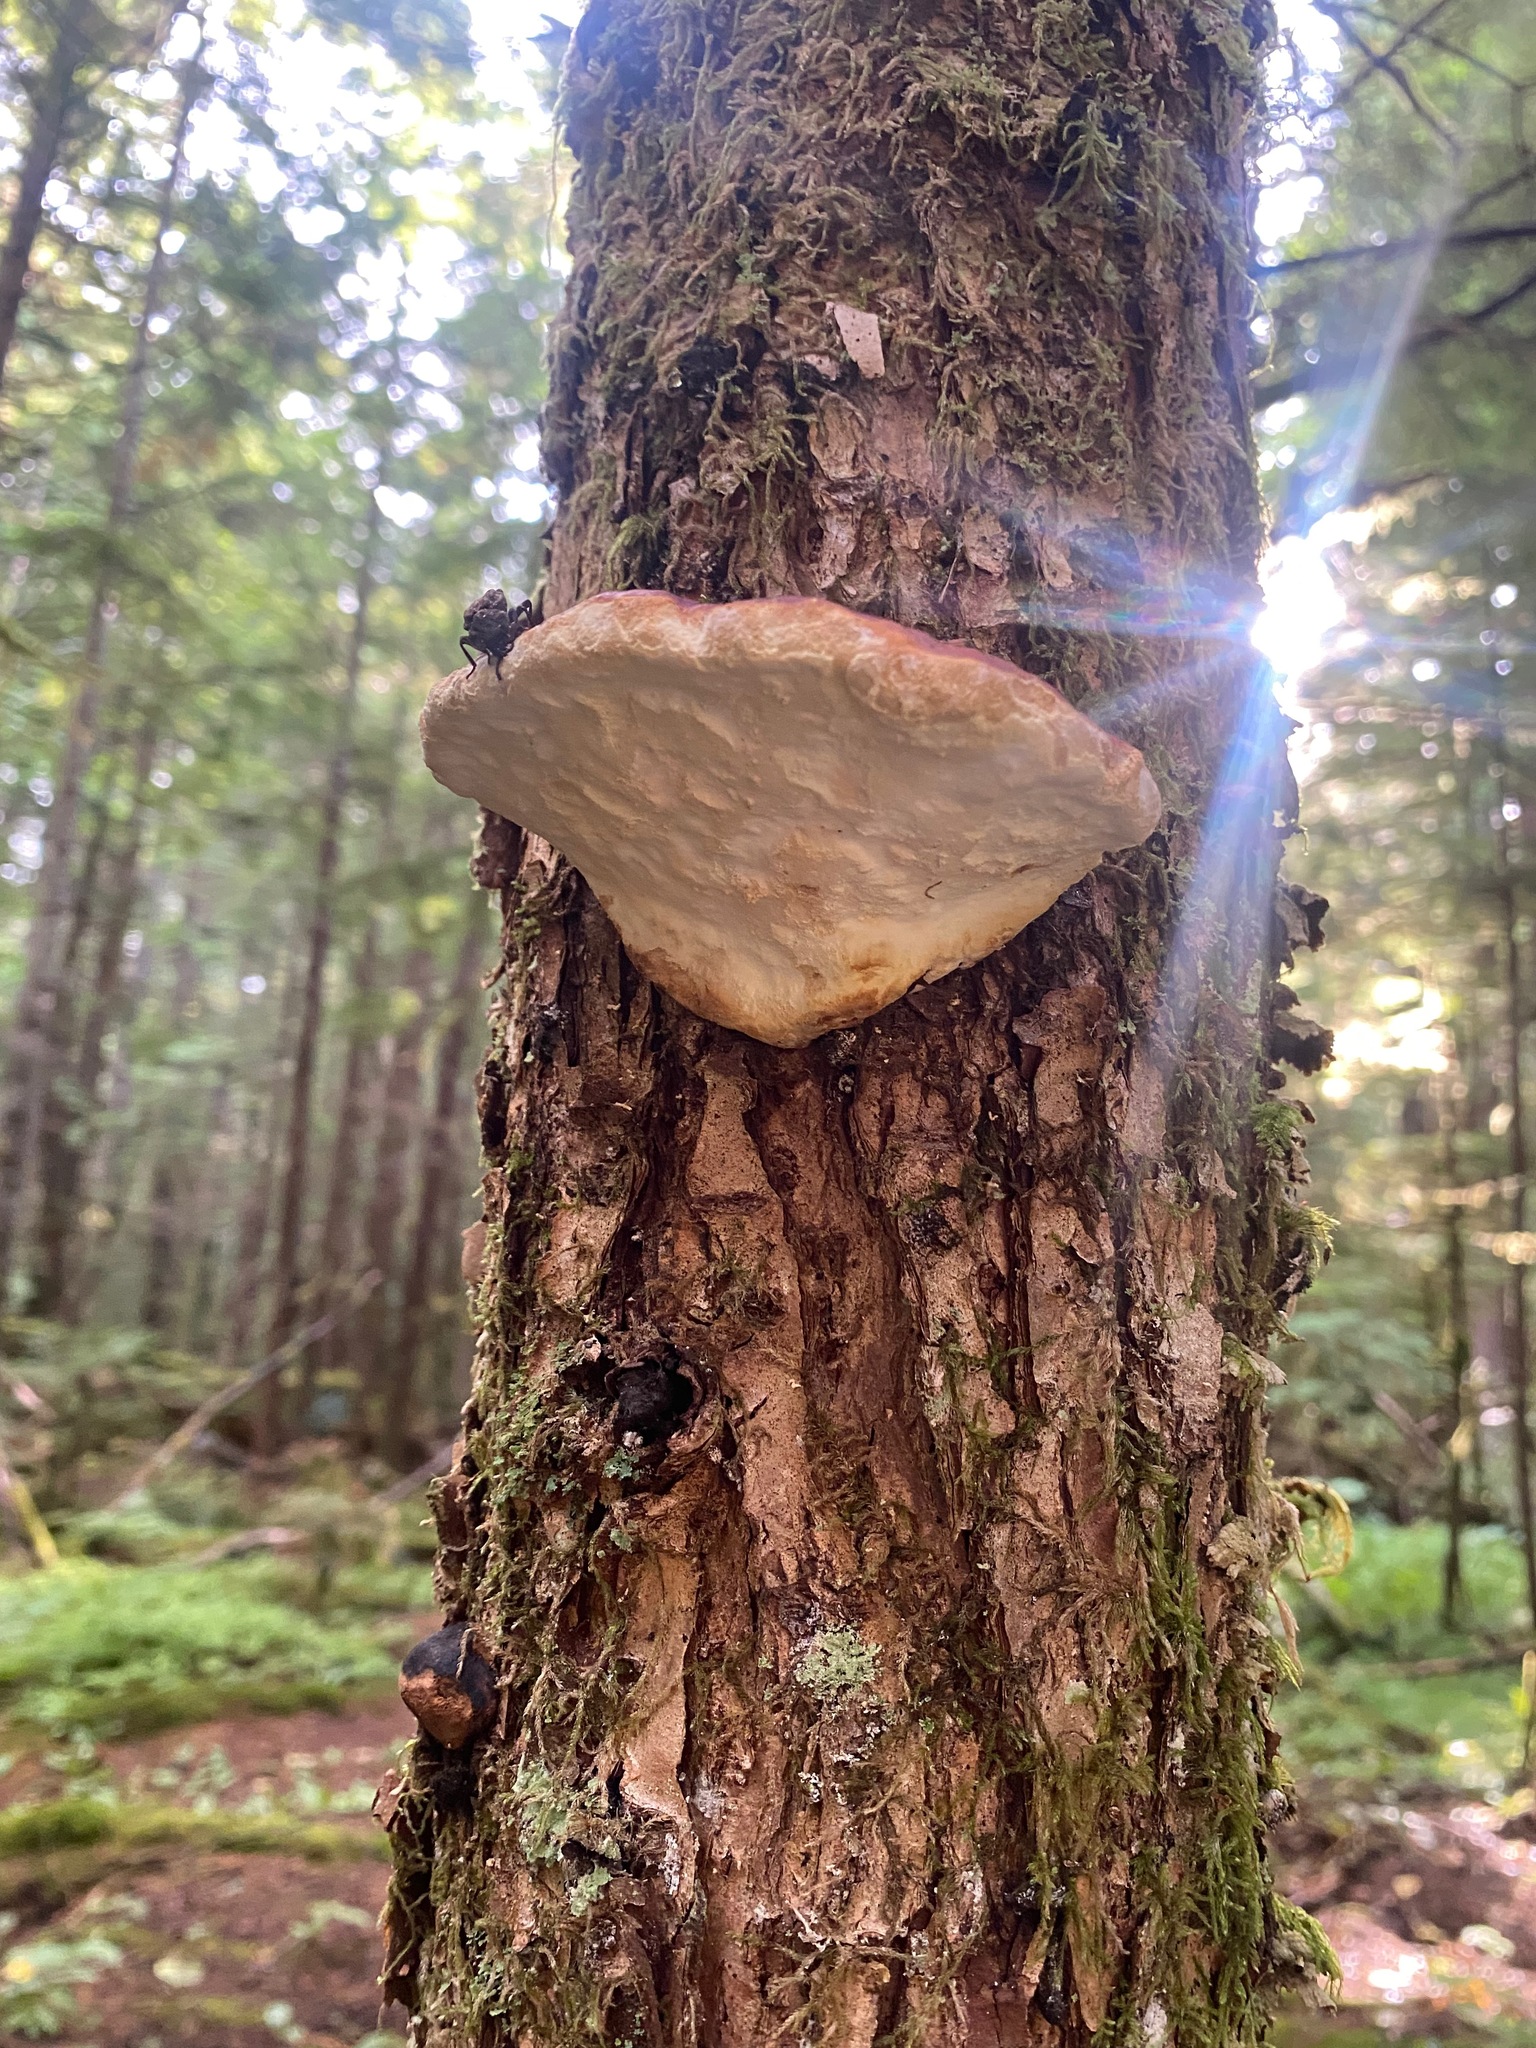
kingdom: Fungi
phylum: Basidiomycota
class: Agaricomycetes
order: Polyporales
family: Fomitopsidaceae
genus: Fomitopsis
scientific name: Fomitopsis mounceae
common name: Northern red belt
